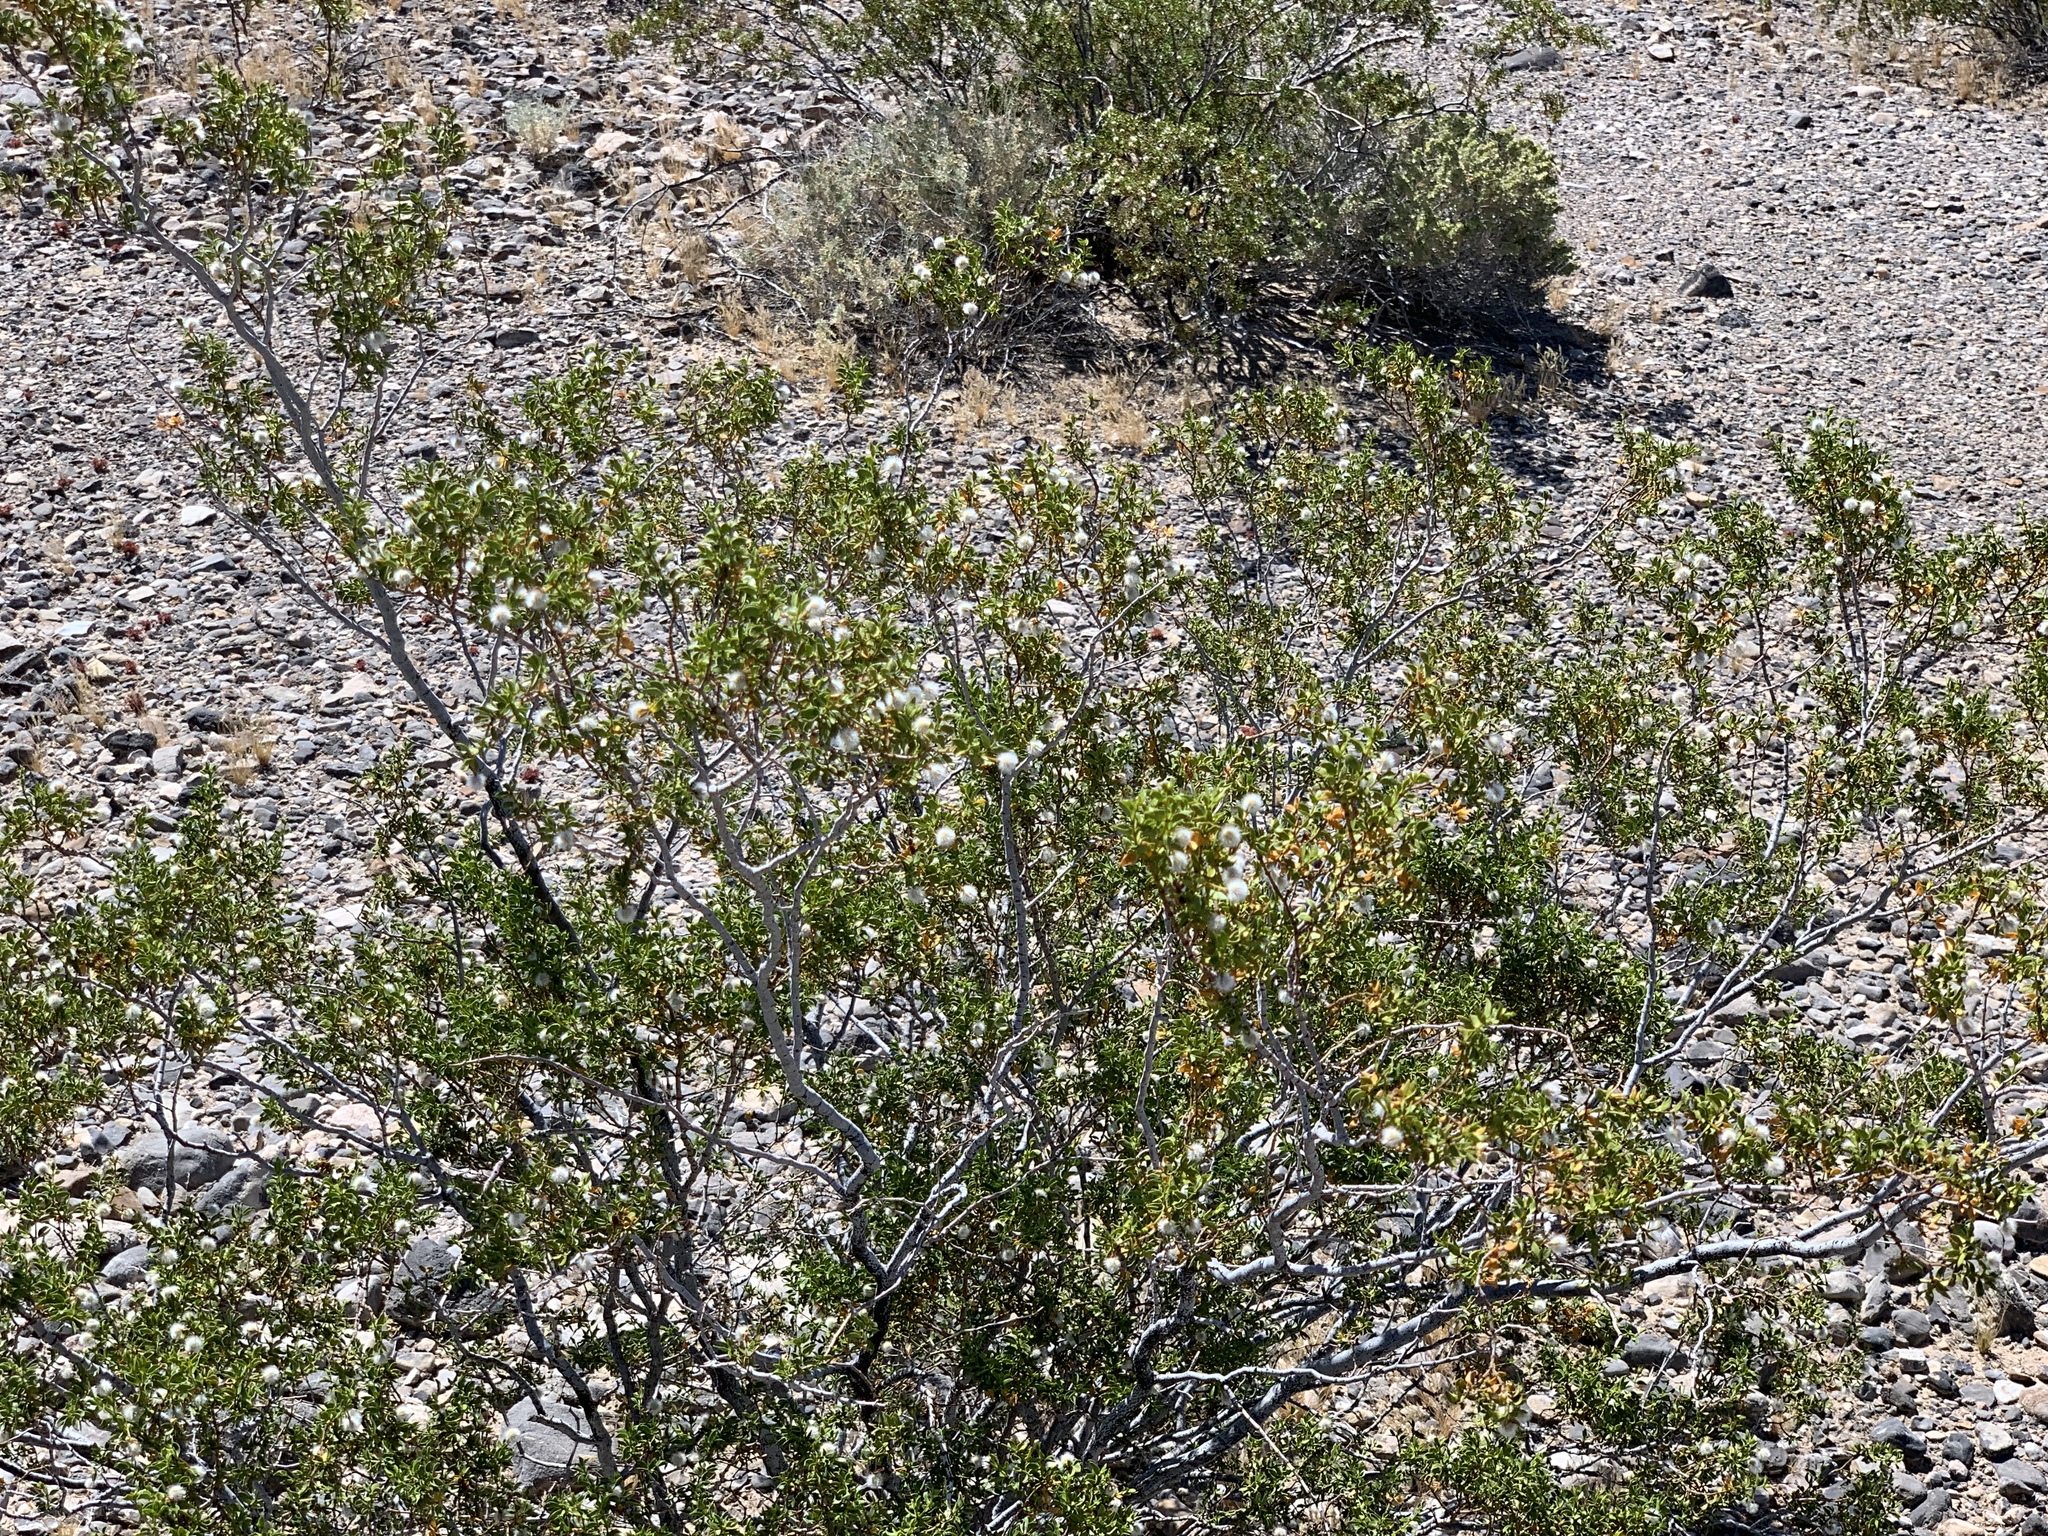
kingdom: Plantae
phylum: Tracheophyta
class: Magnoliopsida
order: Zygophyllales
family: Zygophyllaceae
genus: Larrea
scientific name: Larrea tridentata
